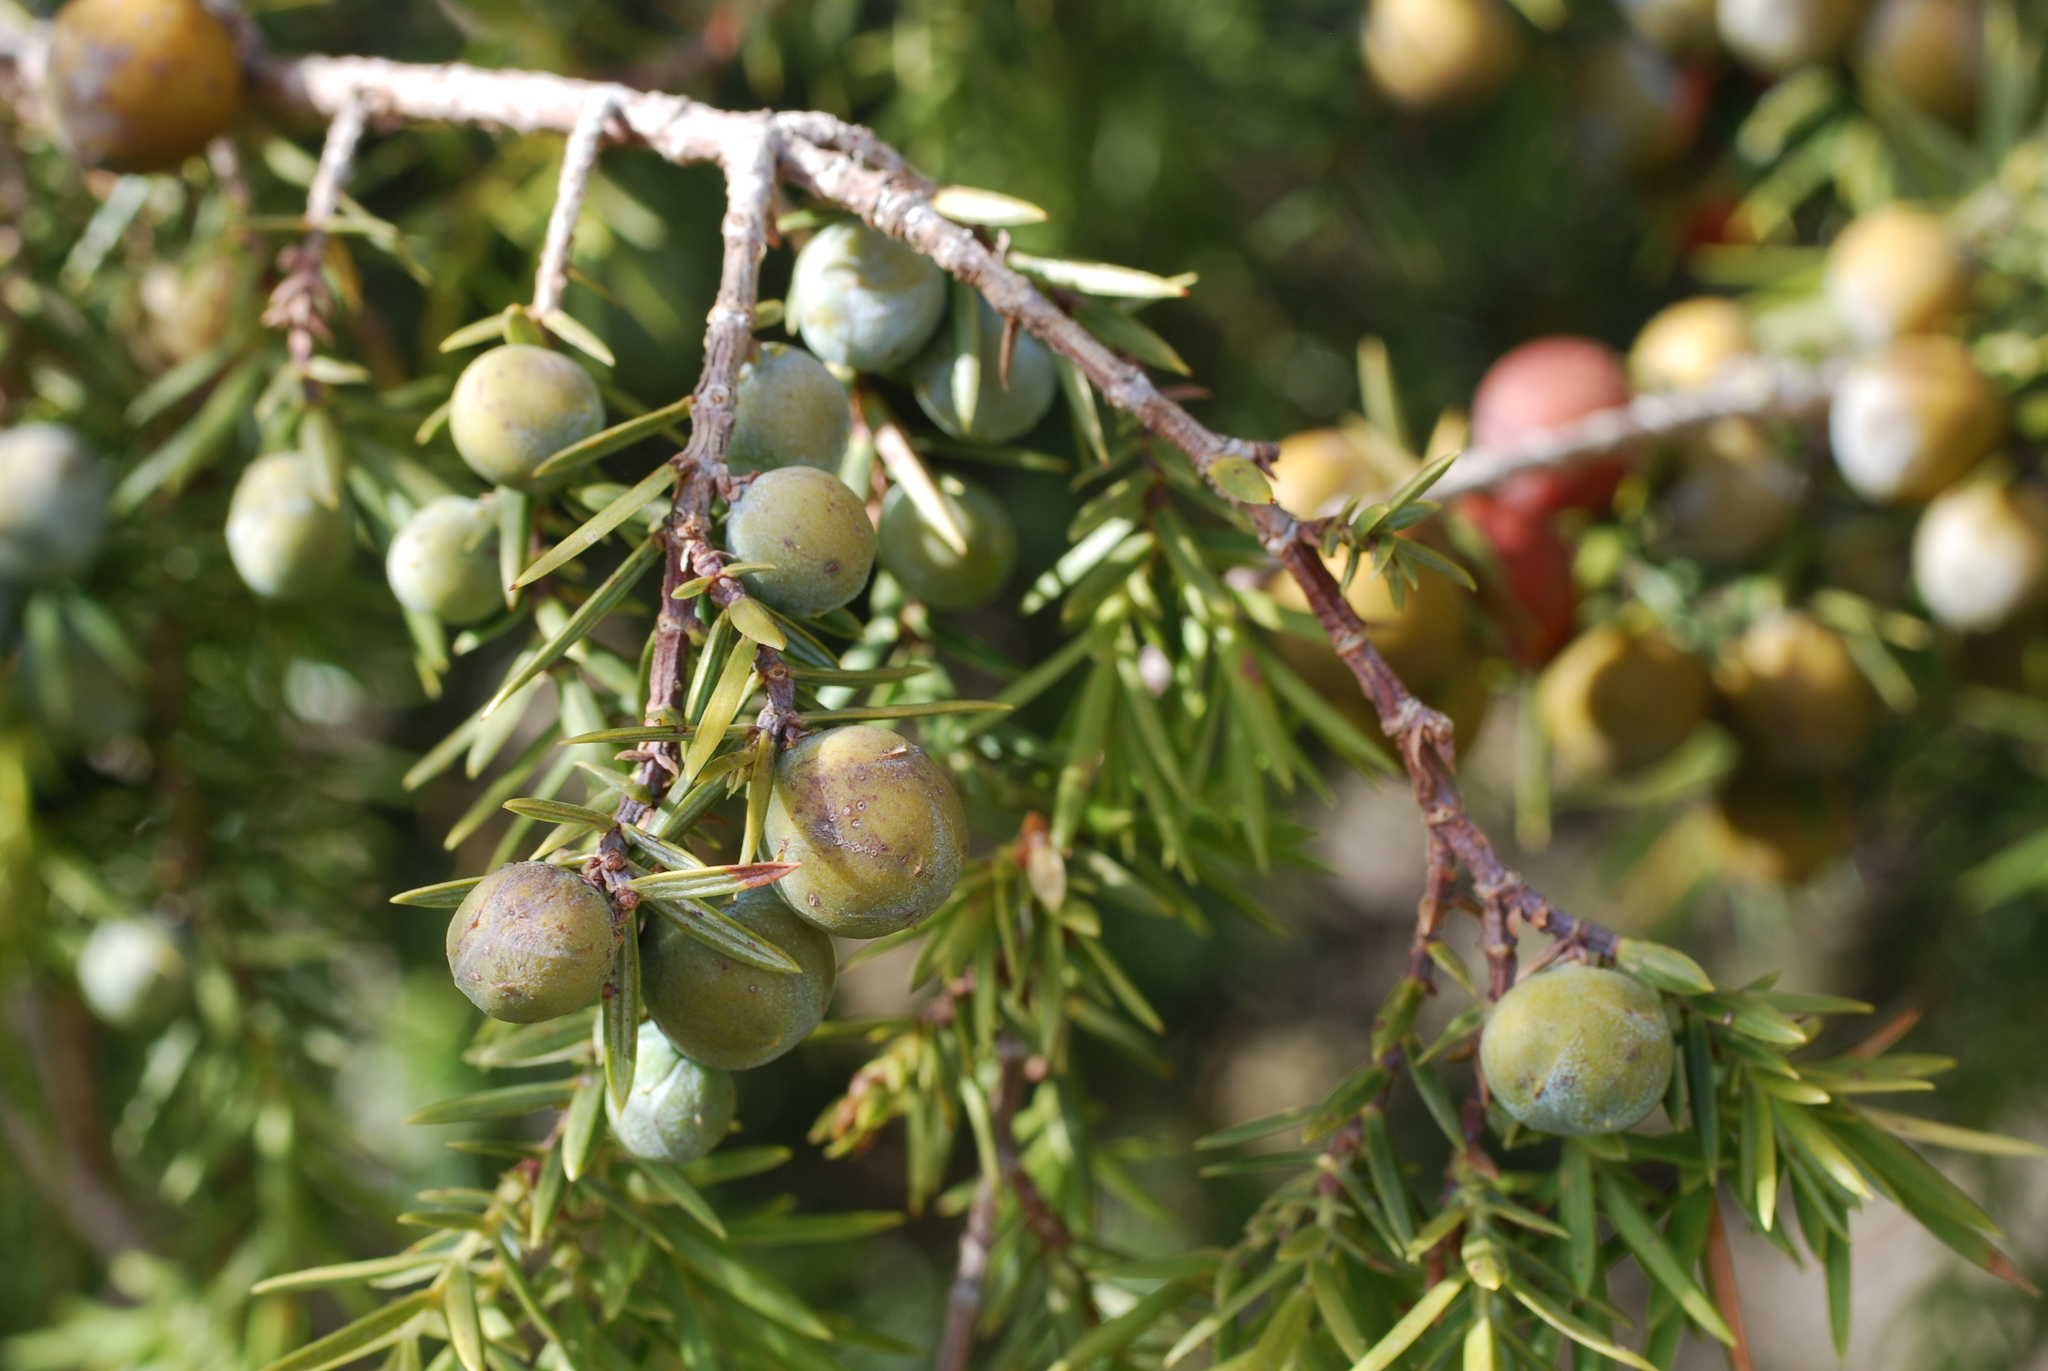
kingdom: Plantae
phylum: Tracheophyta
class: Pinopsida
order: Pinales
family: Cupressaceae
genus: Juniperus
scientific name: Juniperus oxycedrus
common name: Prickly juniper
